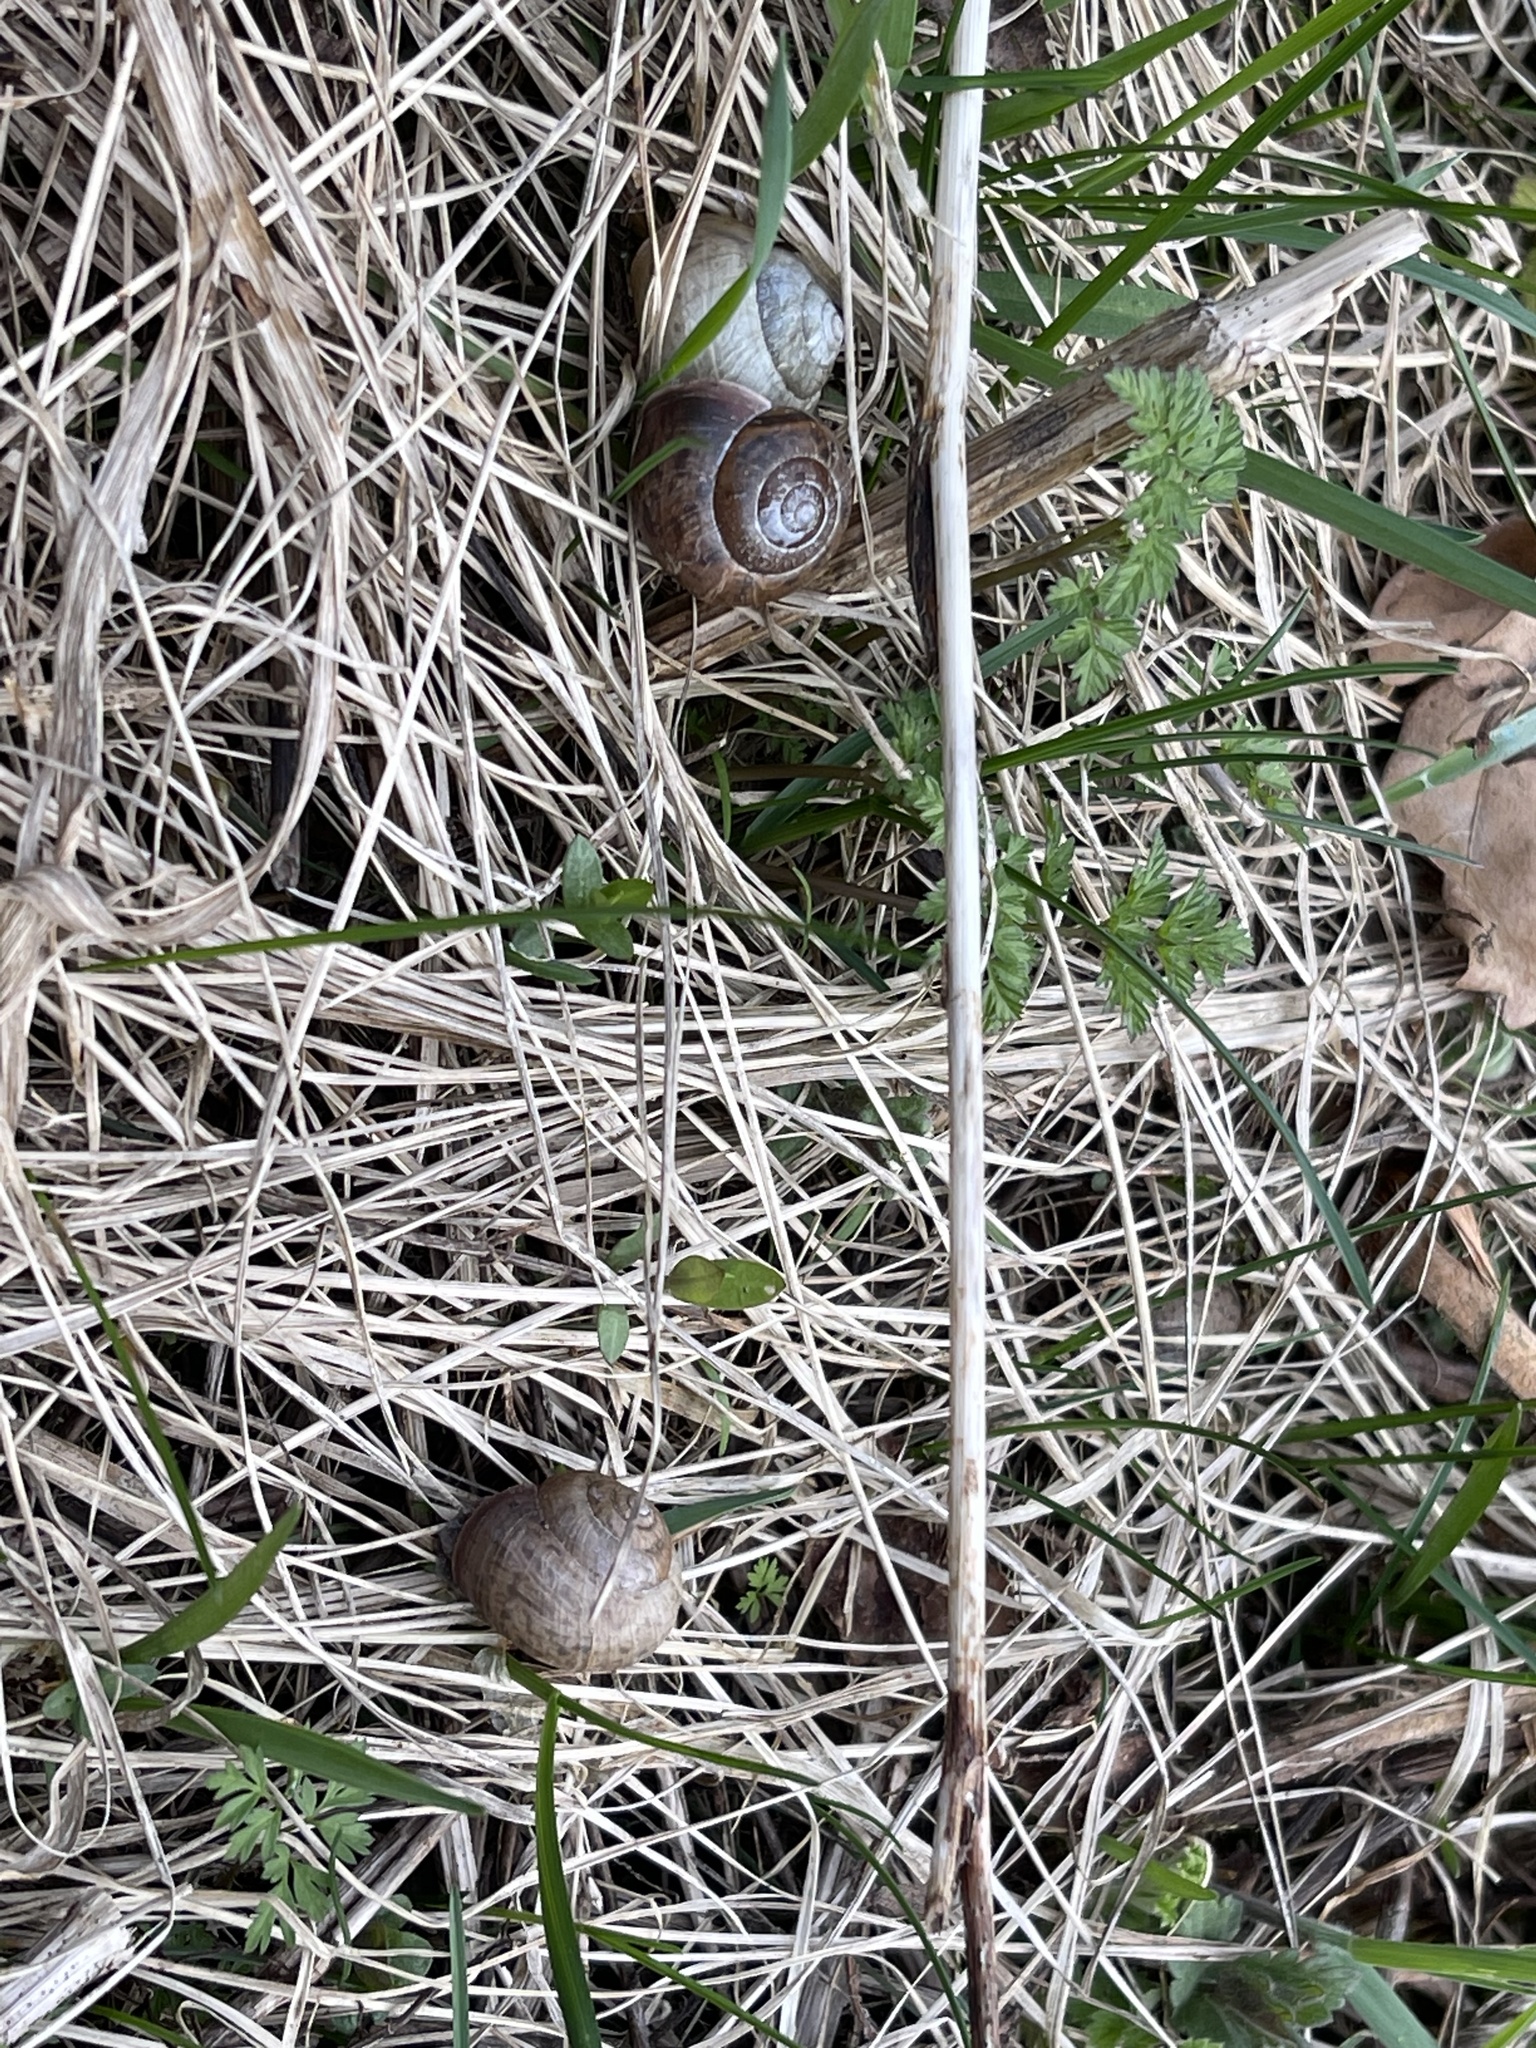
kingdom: Animalia
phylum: Mollusca
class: Gastropoda
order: Stylommatophora
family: Camaenidae
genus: Fruticicola
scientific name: Fruticicola fruticum
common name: Bush snail
